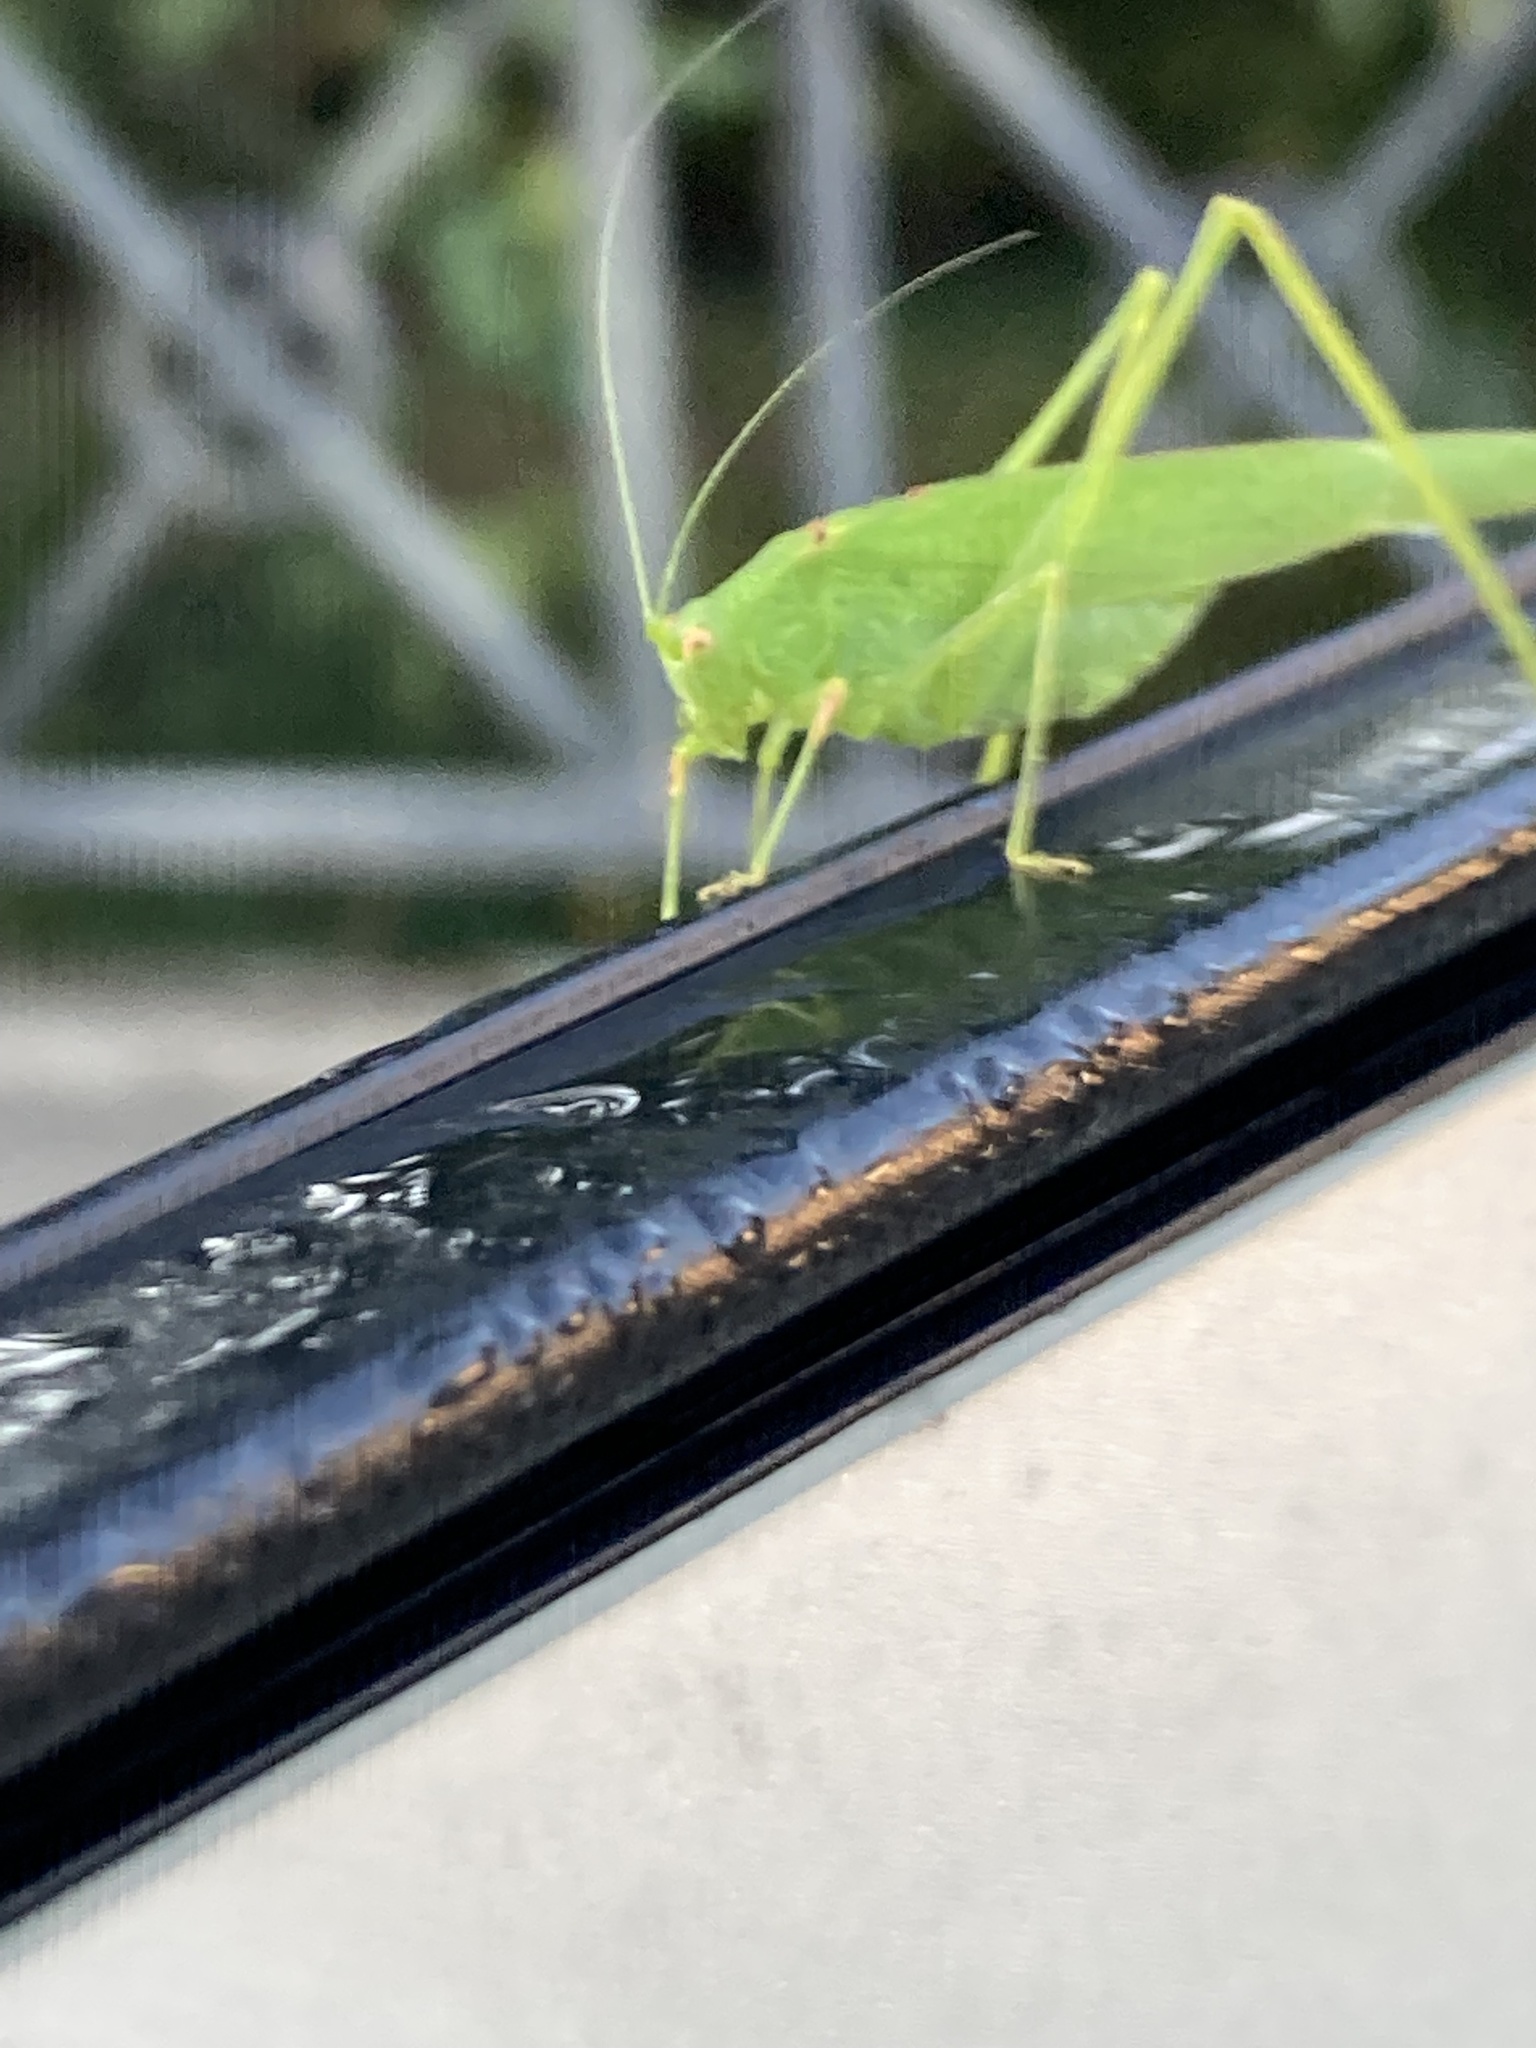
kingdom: Animalia
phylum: Arthropoda
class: Insecta
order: Orthoptera
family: Tettigoniidae
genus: Phaneroptera
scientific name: Phaneroptera nana
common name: Southern sickle bush-cricket
